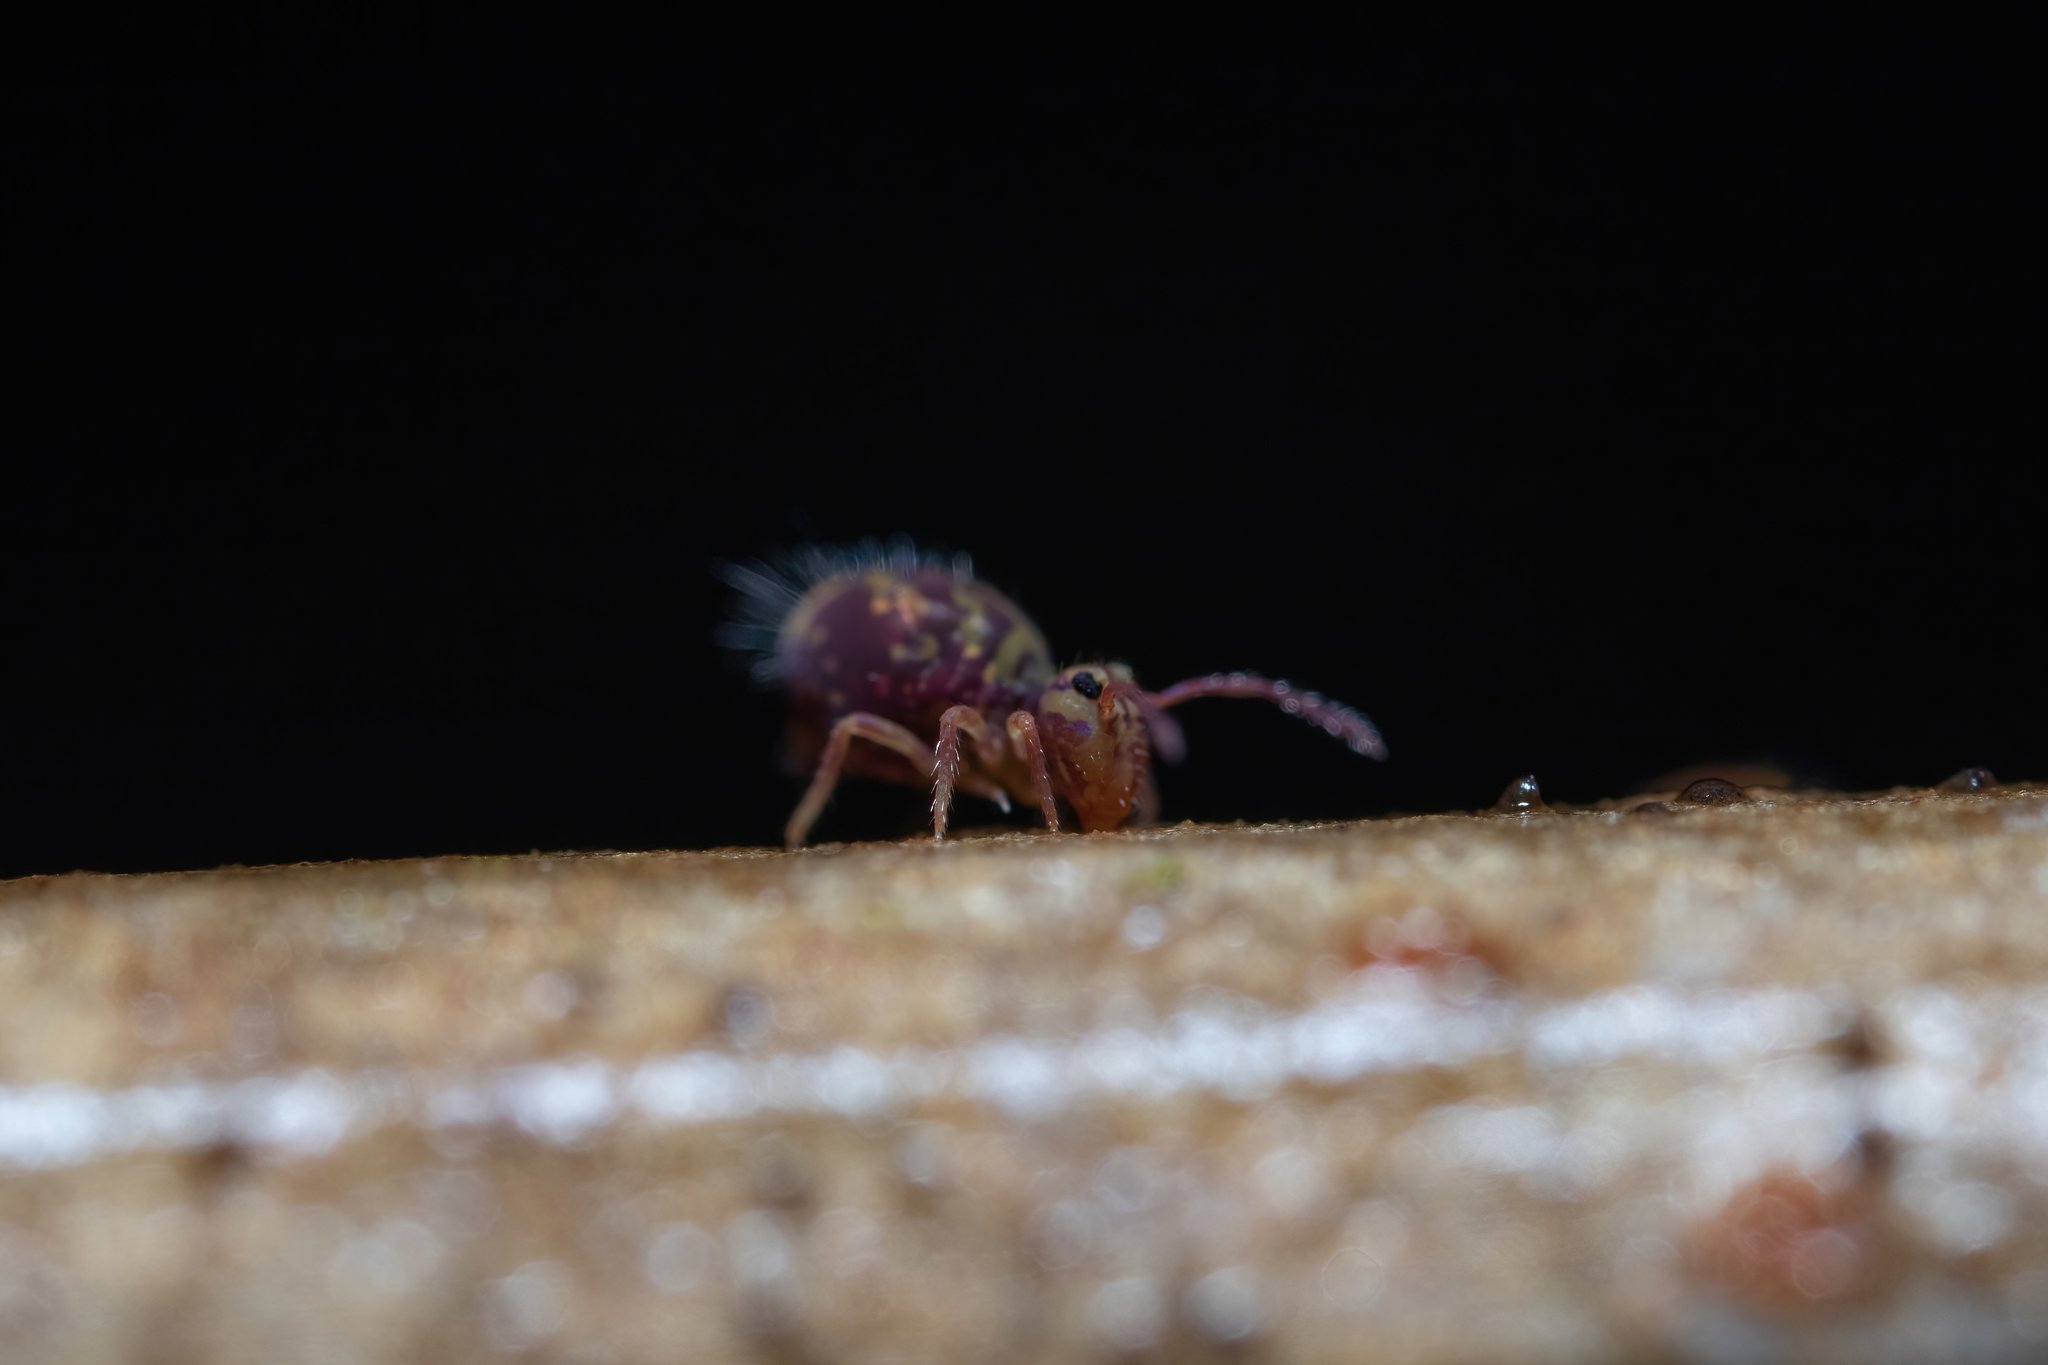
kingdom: Animalia
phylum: Arthropoda
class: Collembola
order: Symphypleona
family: Dicyrtomidae
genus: Dicyrtomina
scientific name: Dicyrtomina ornata
